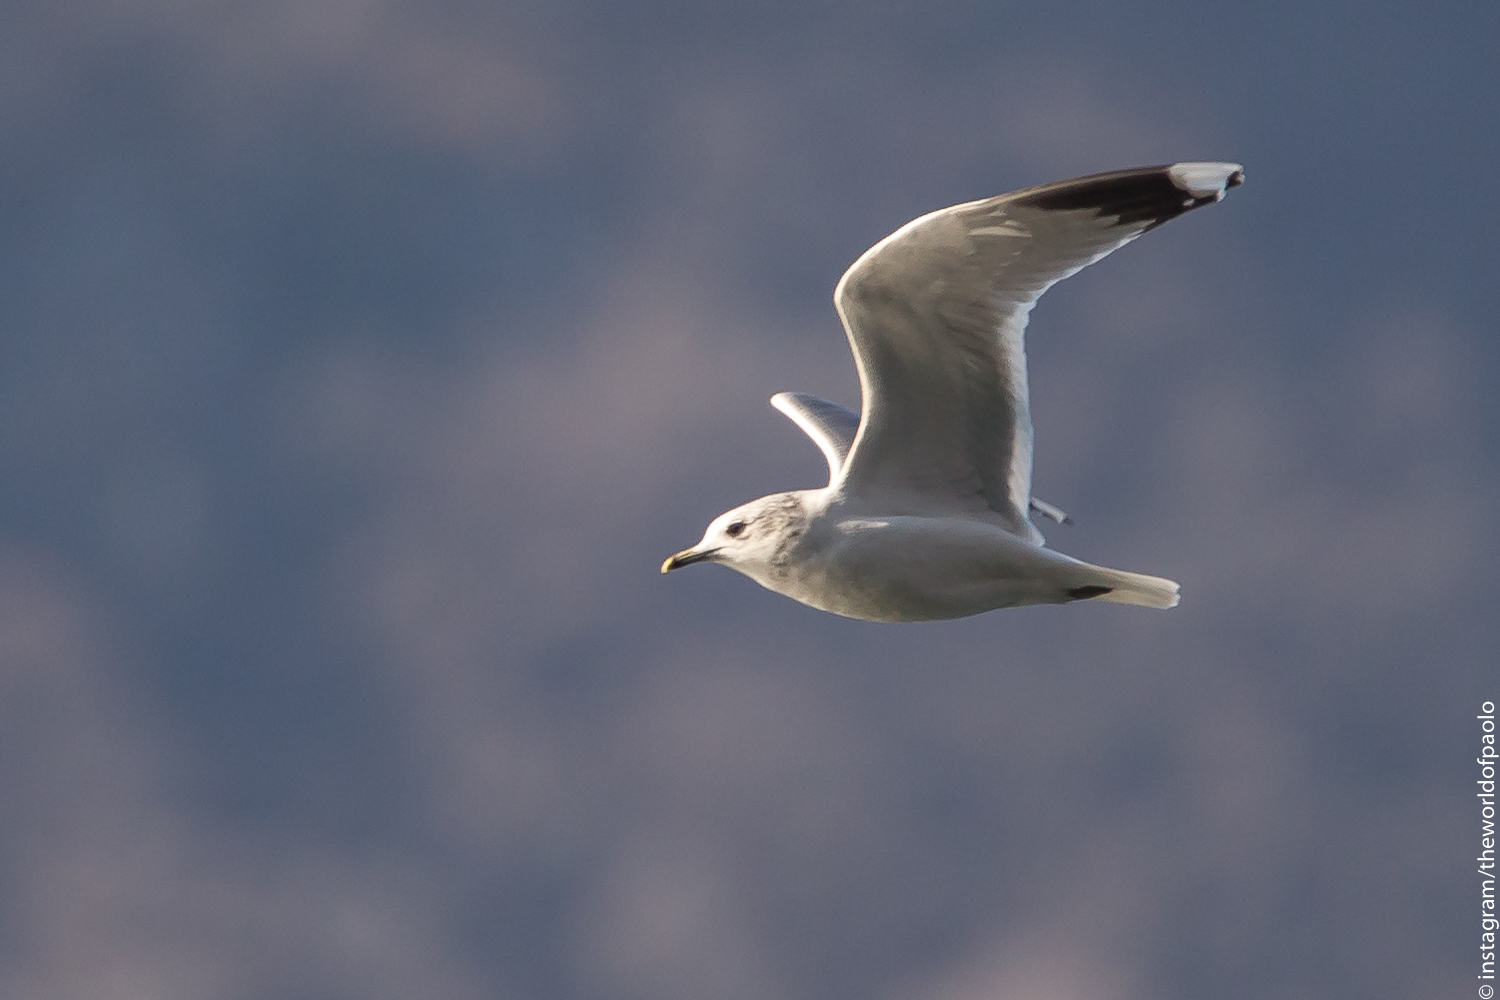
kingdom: Animalia
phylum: Chordata
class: Aves
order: Charadriiformes
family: Laridae
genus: Larus
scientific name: Larus canus
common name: Mew gull
